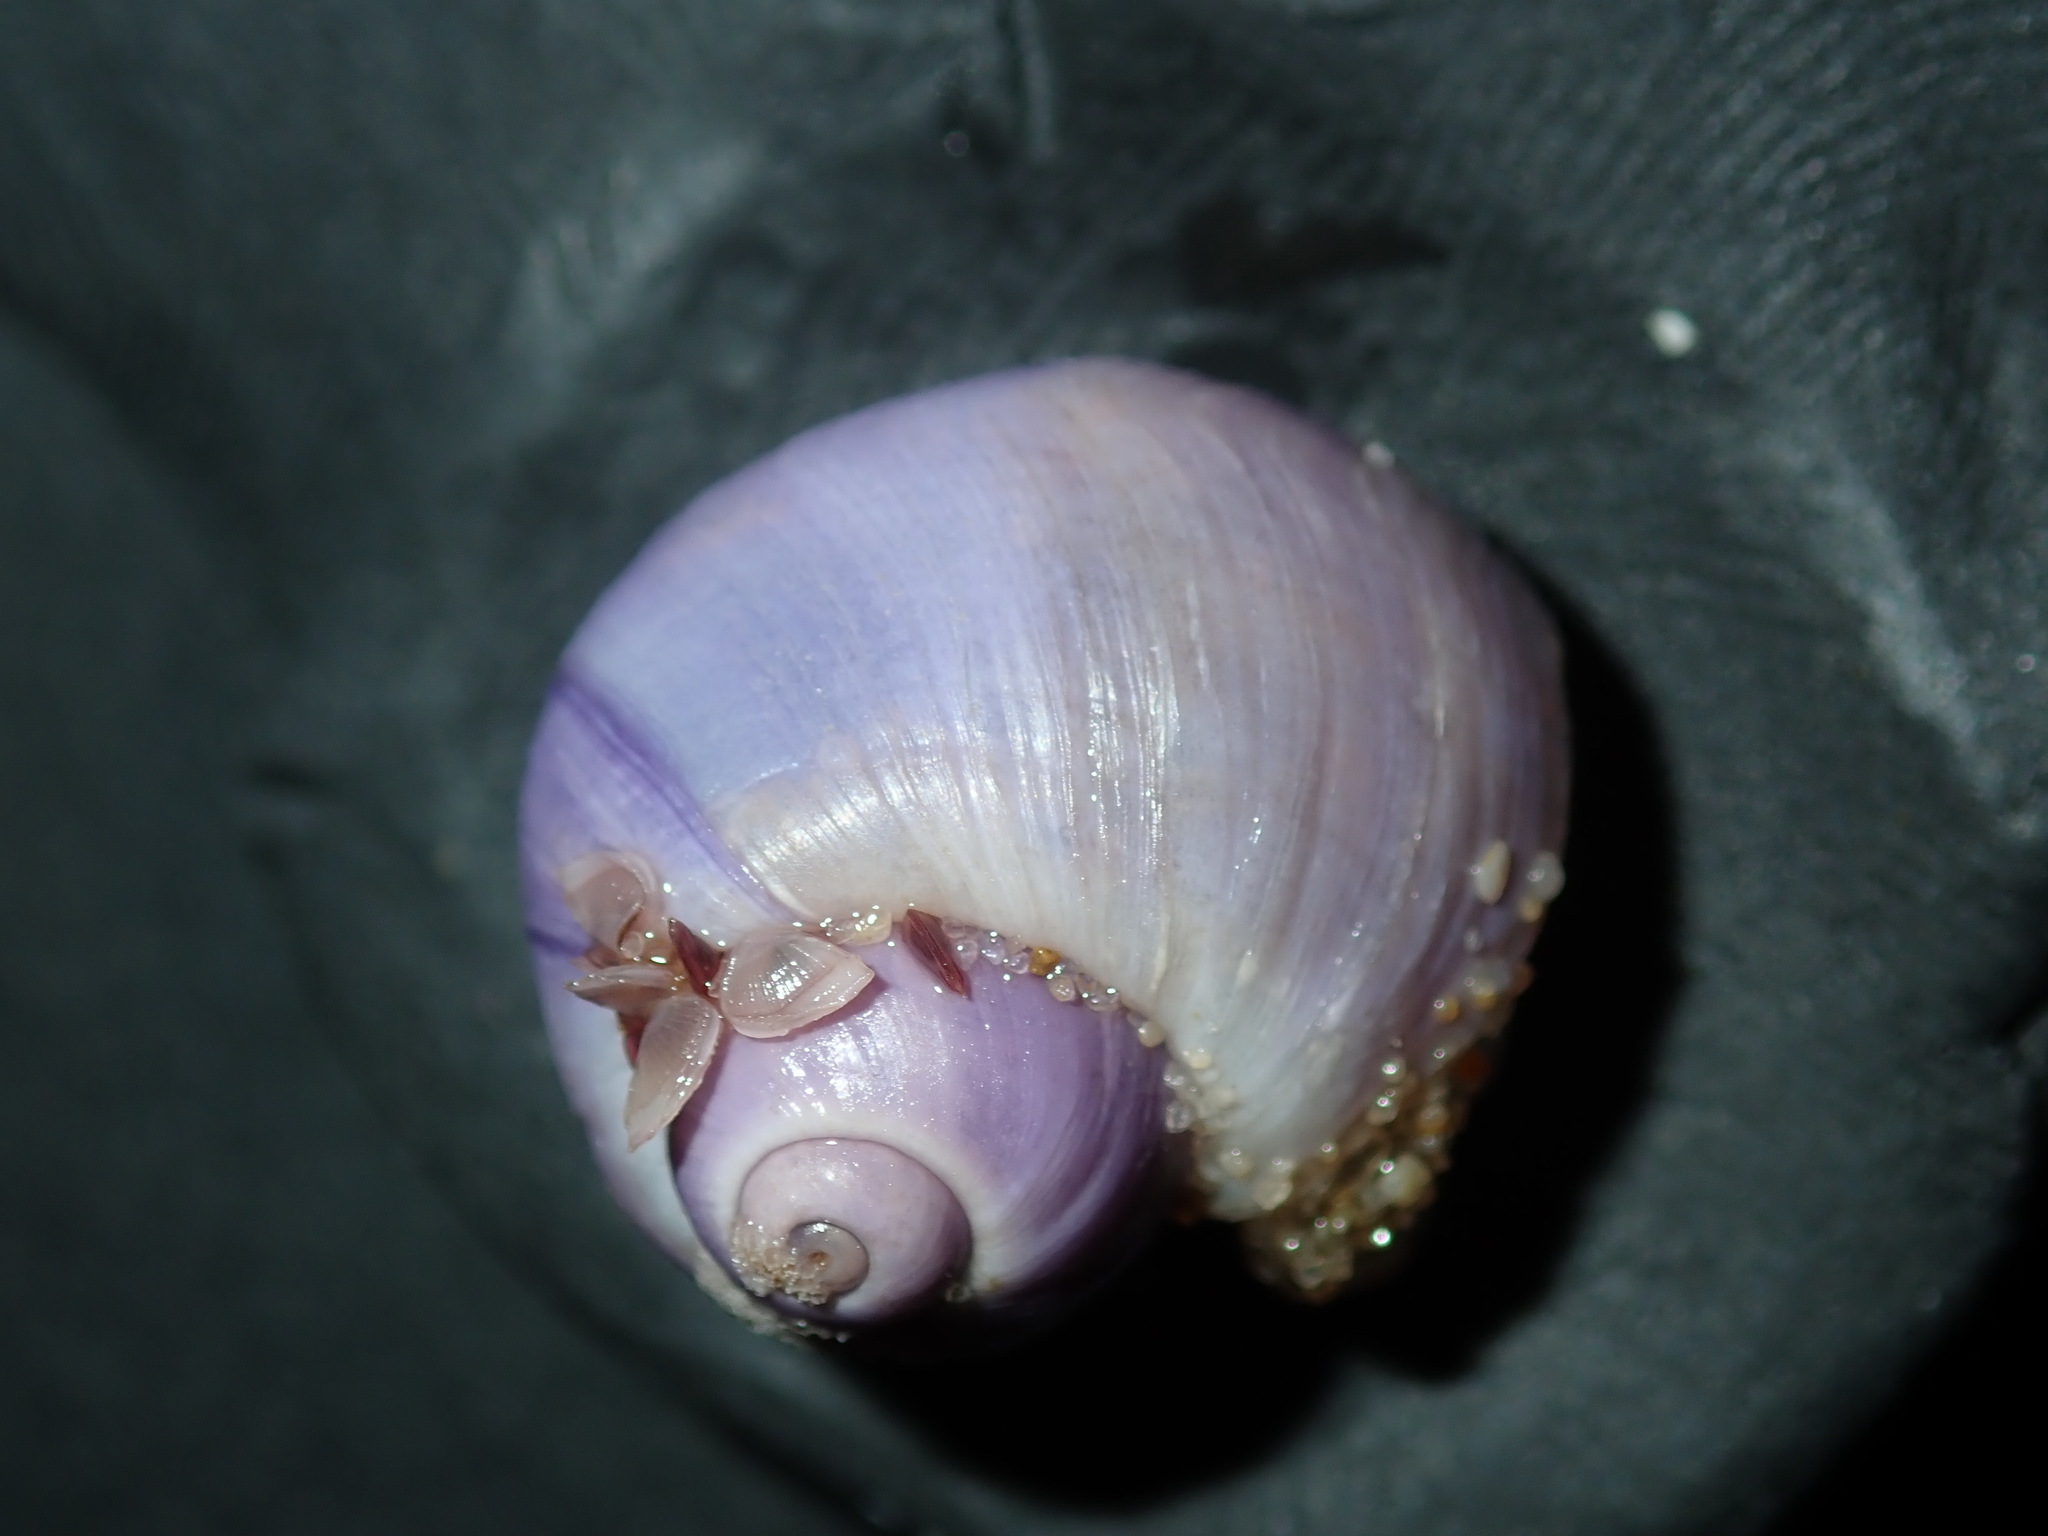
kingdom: Animalia
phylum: Mollusca
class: Gastropoda
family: Epitoniidae
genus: Janthina
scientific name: Janthina globosa
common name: Elongate janthina
